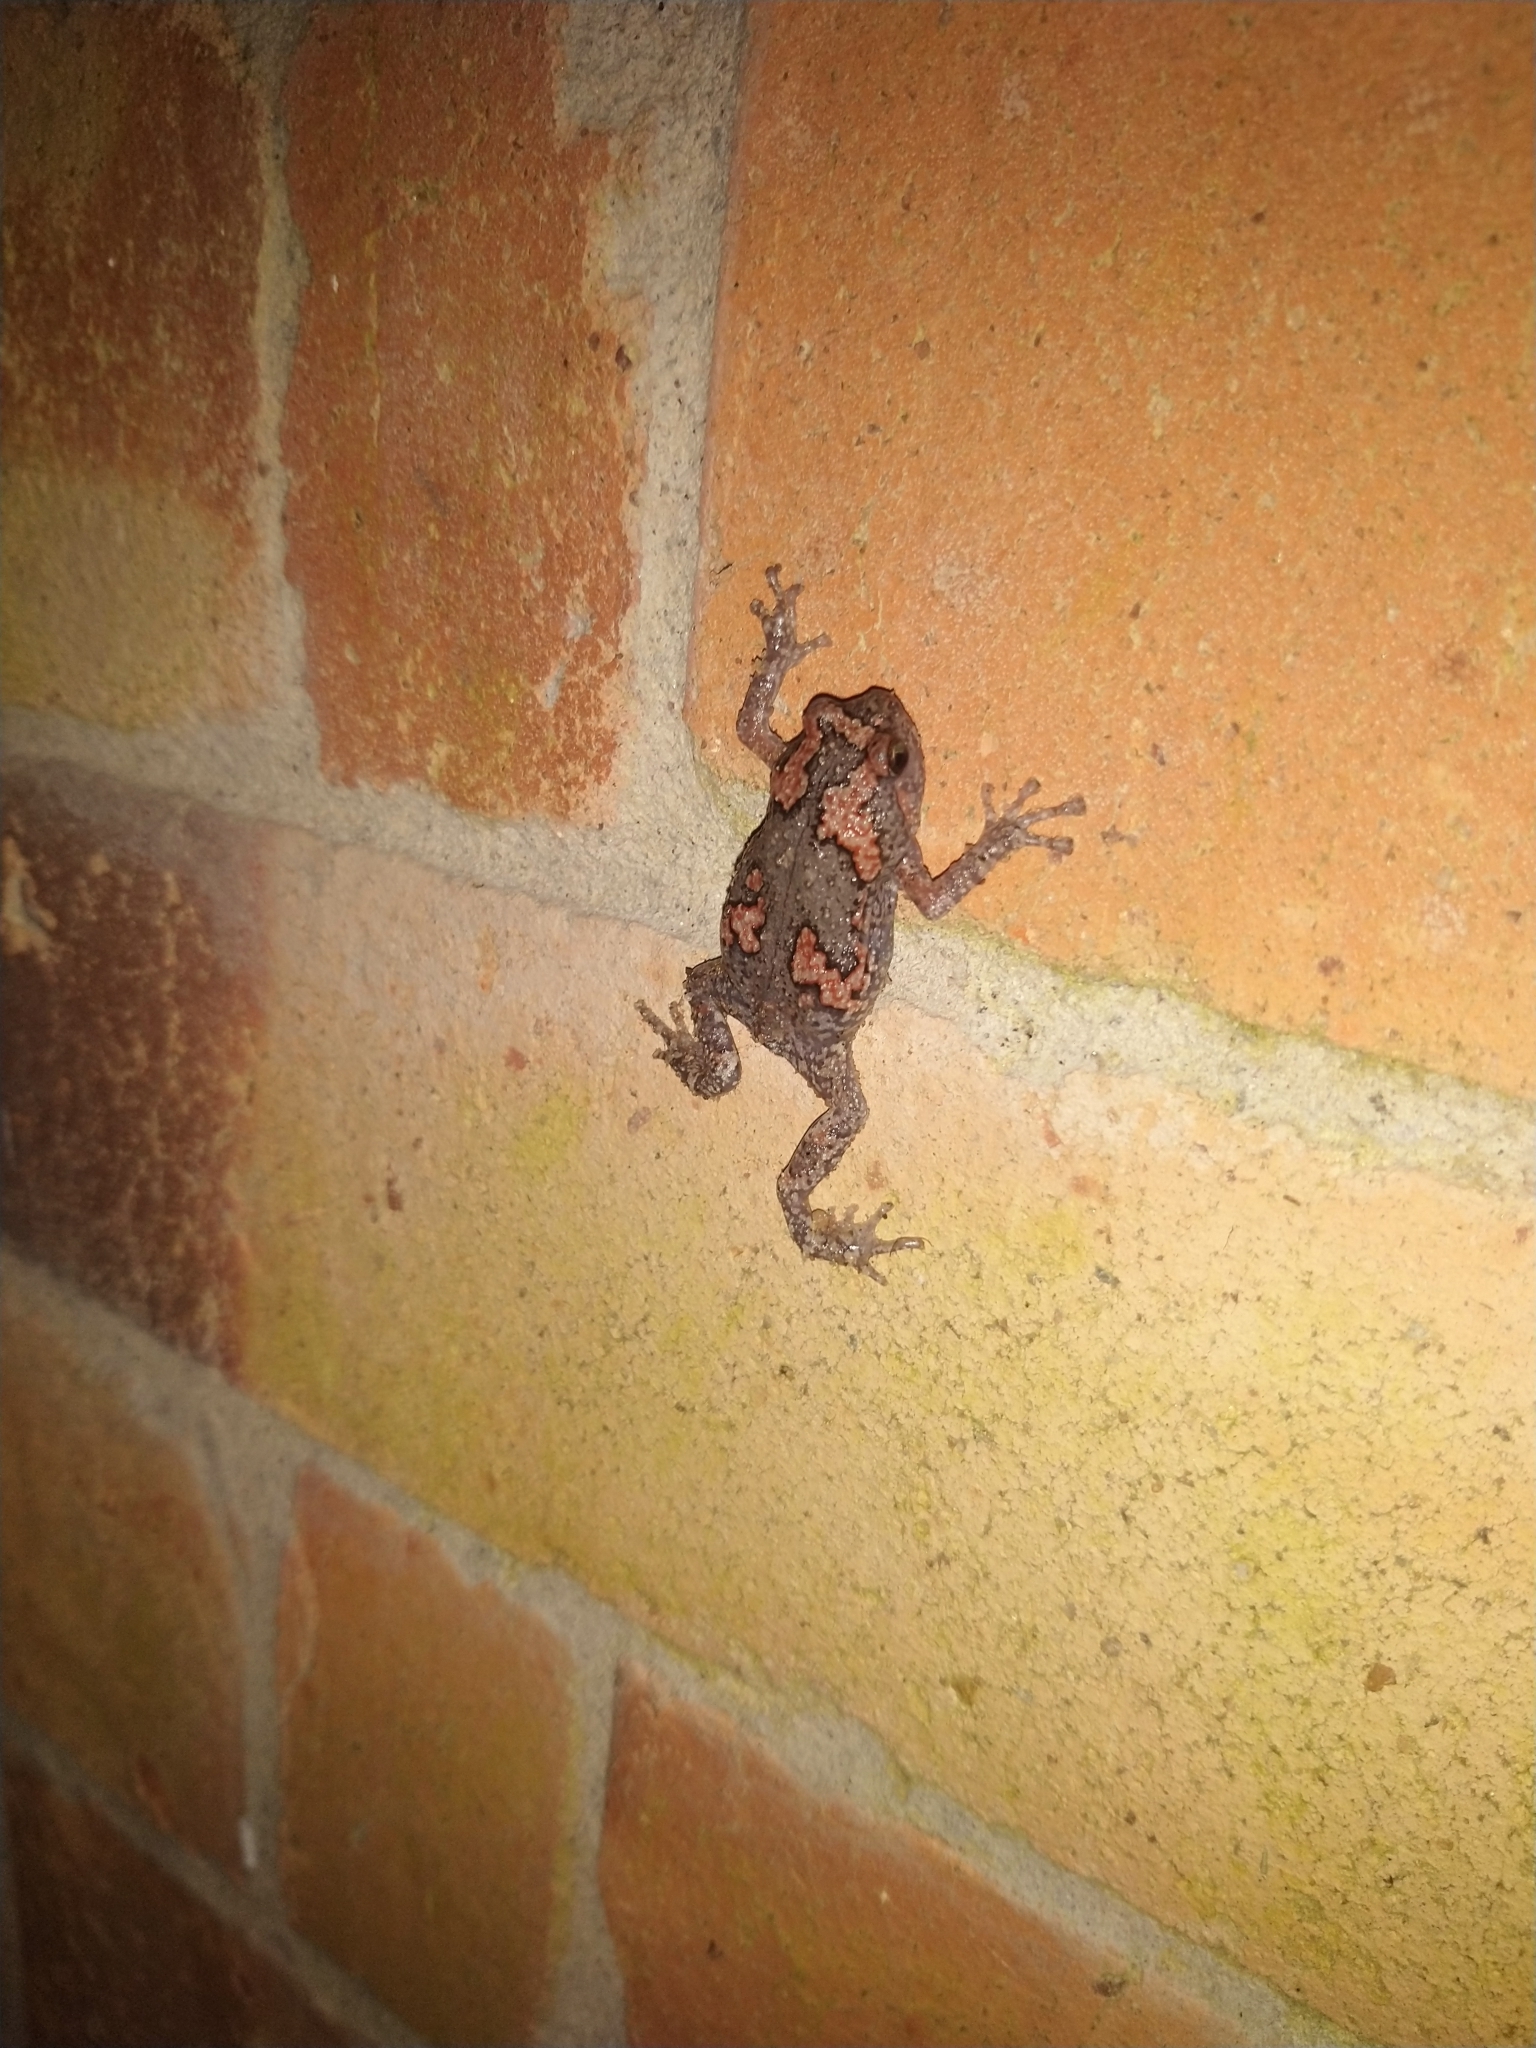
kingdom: Animalia
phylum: Chordata
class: Amphibia
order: Anura
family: Microhylidae
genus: Uperodon
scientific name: Uperodon taprobanicus
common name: Ceylon kaloula
